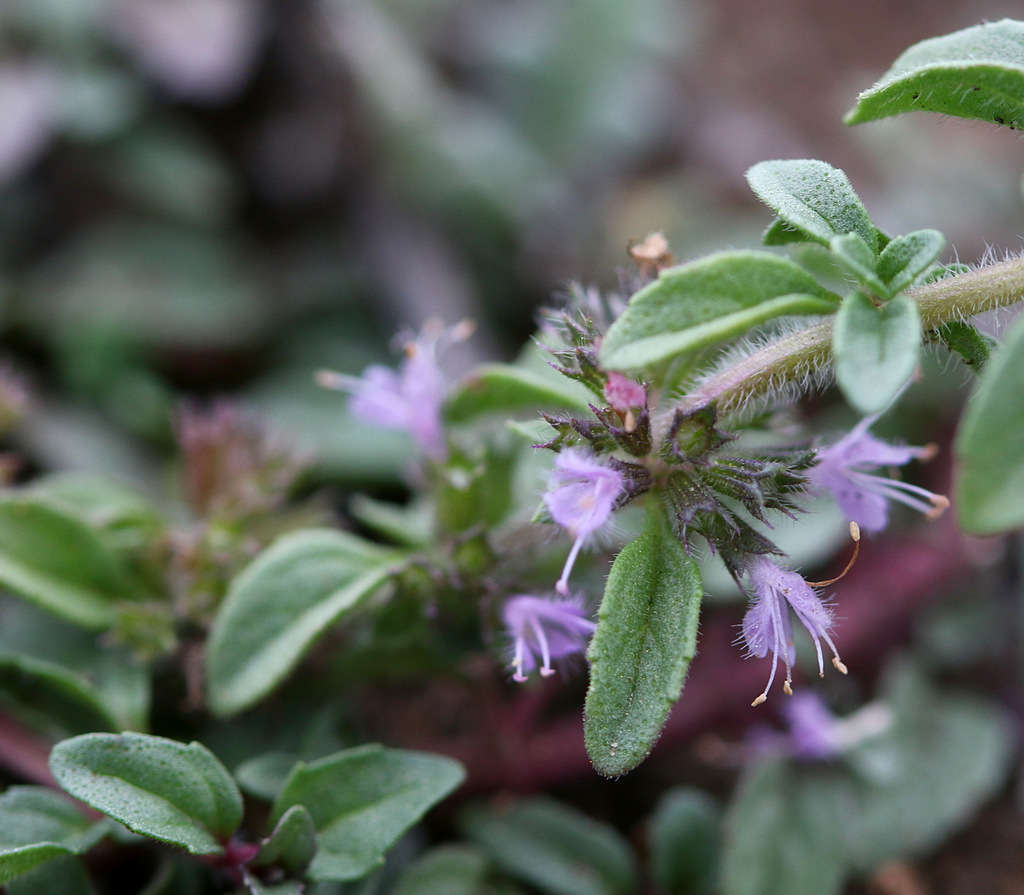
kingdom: Plantae
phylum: Tracheophyta
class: Magnoliopsida
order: Lamiales
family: Lamiaceae
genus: Mentha
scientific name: Mentha pulegium
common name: Pennyroyal
